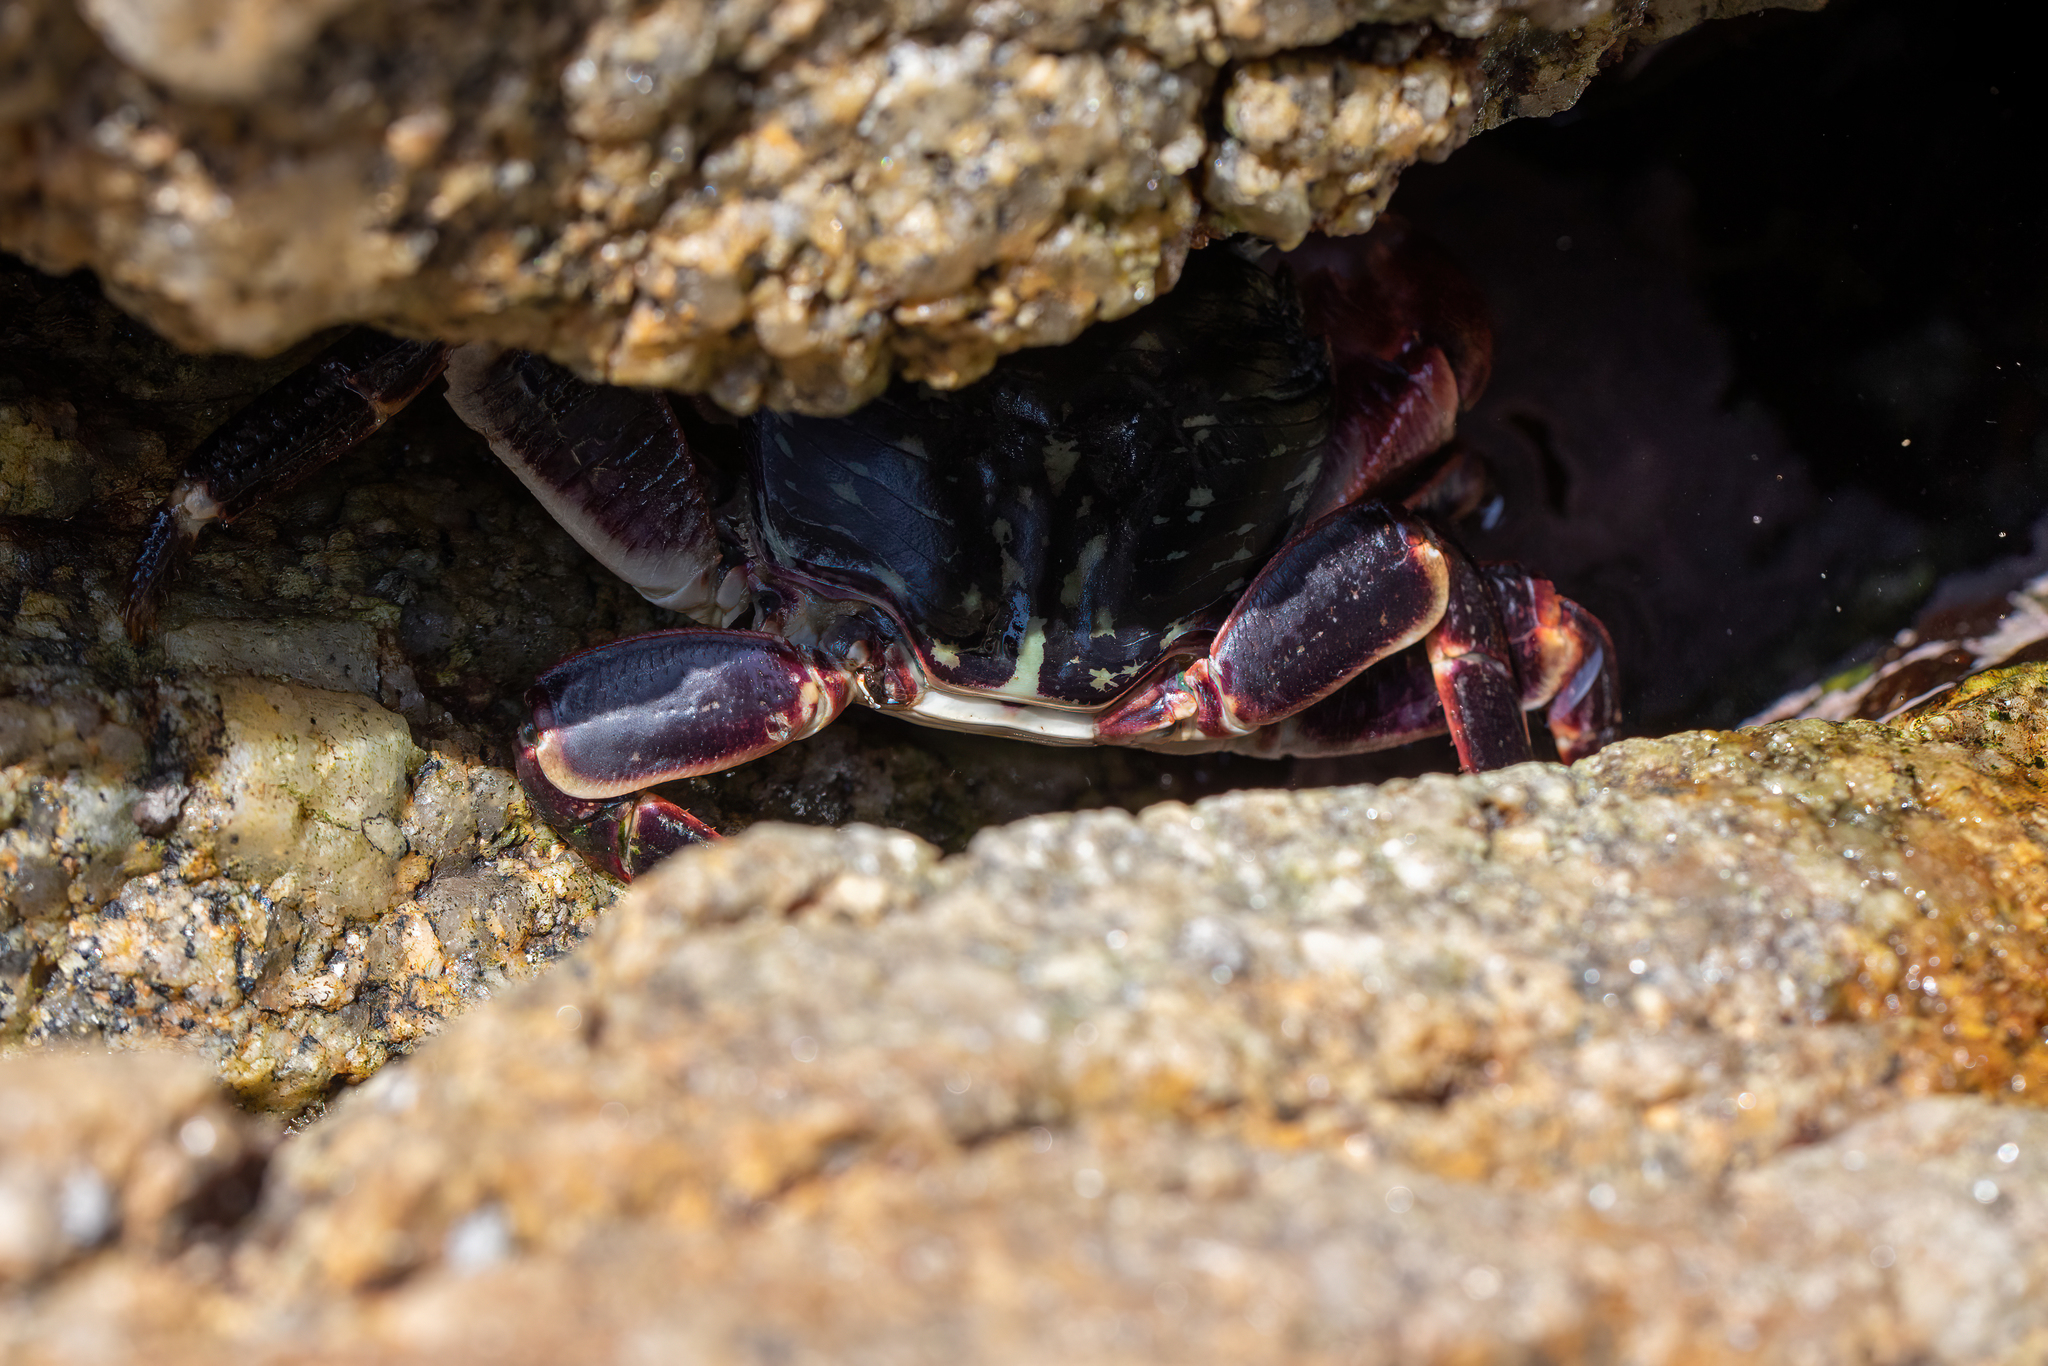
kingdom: Animalia
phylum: Arthropoda
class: Malacostraca
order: Decapoda
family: Grapsidae
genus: Pachygrapsus
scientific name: Pachygrapsus crassipes
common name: Striped shore crab
